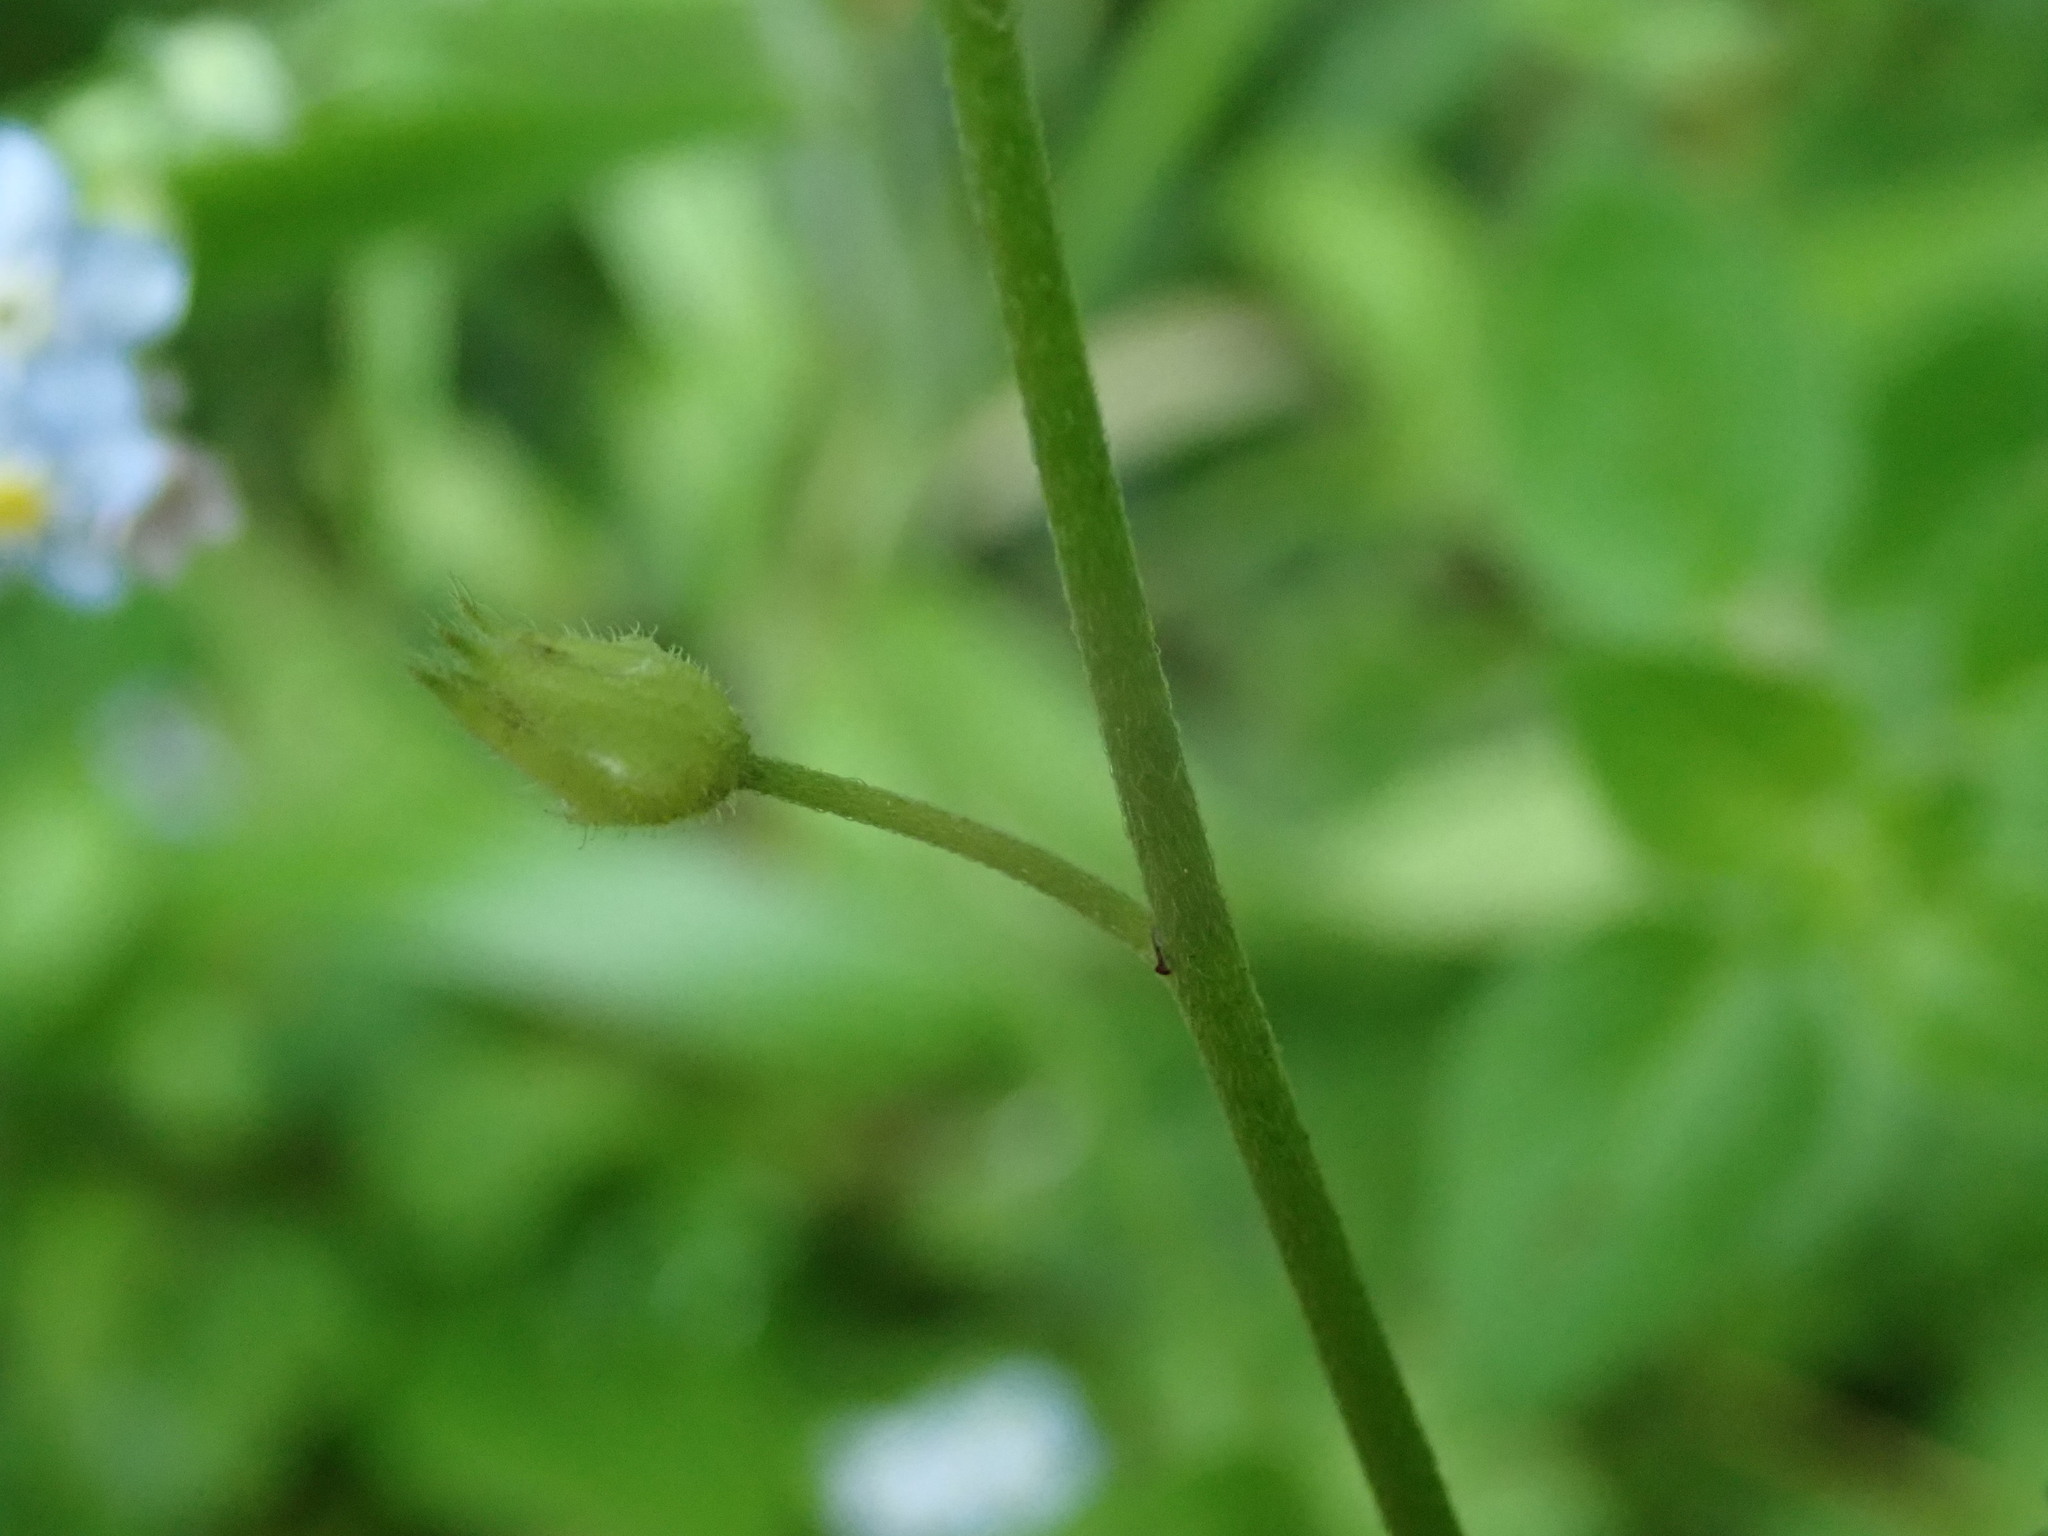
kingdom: Plantae
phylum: Tracheophyta
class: Magnoliopsida
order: Boraginales
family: Boraginaceae
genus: Myosotis
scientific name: Myosotis sylvatica
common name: Wood forget-me-not
